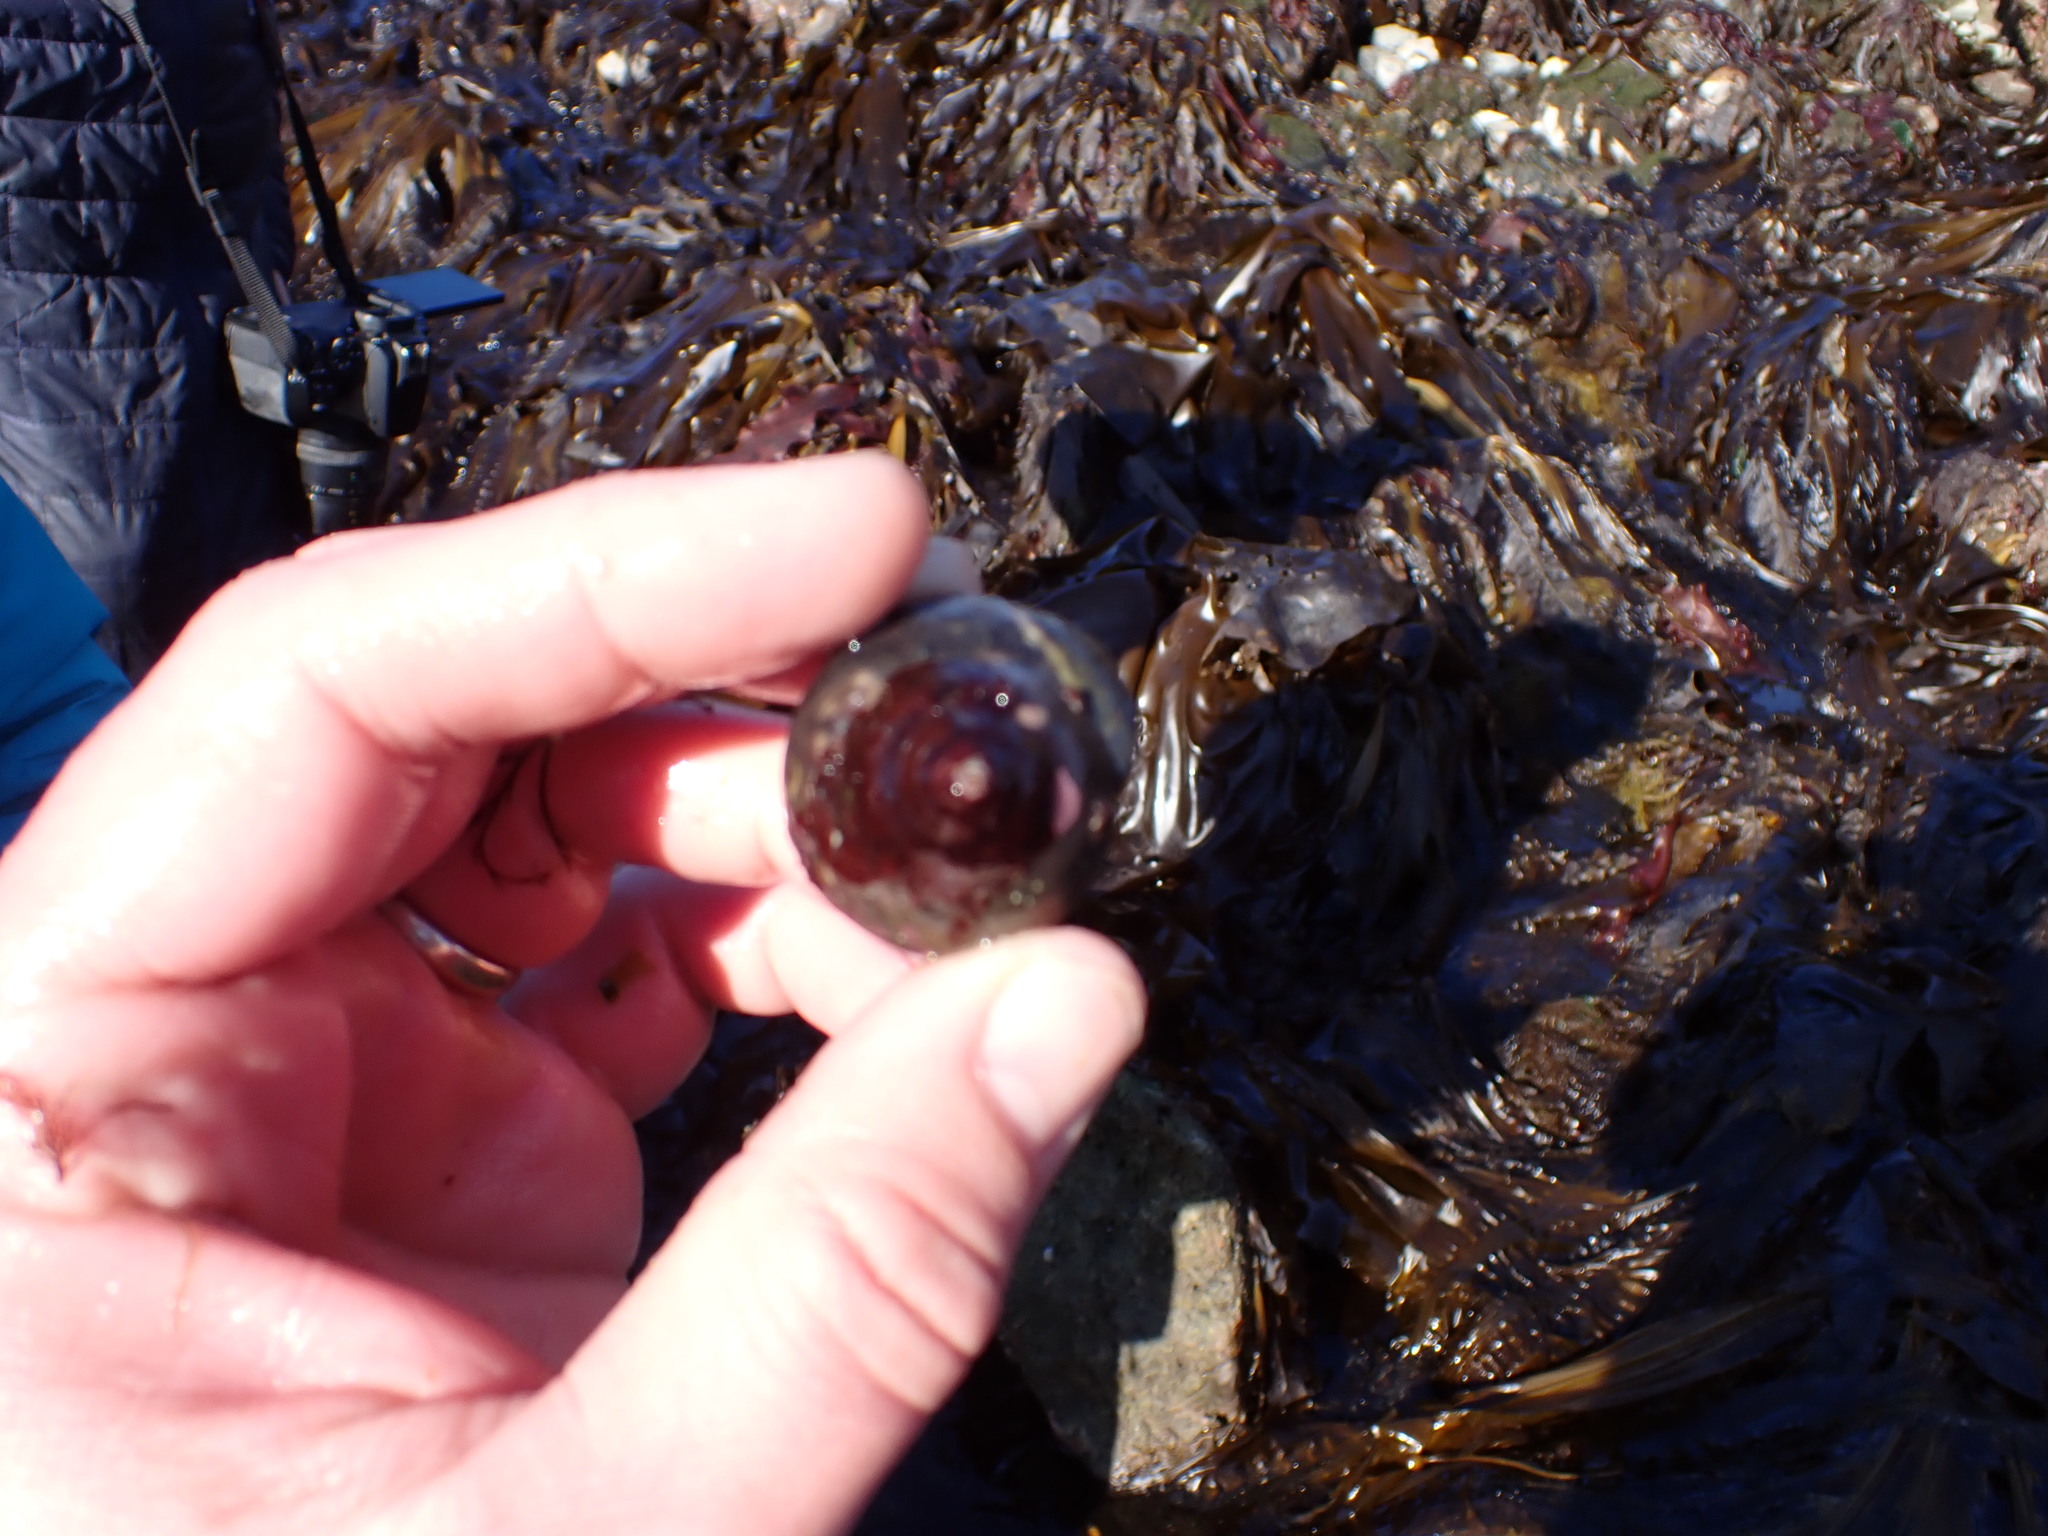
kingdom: Animalia
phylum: Mollusca
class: Gastropoda
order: Trochida
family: Tegulidae
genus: Tegula
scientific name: Tegula pulligo
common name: Brown turban
